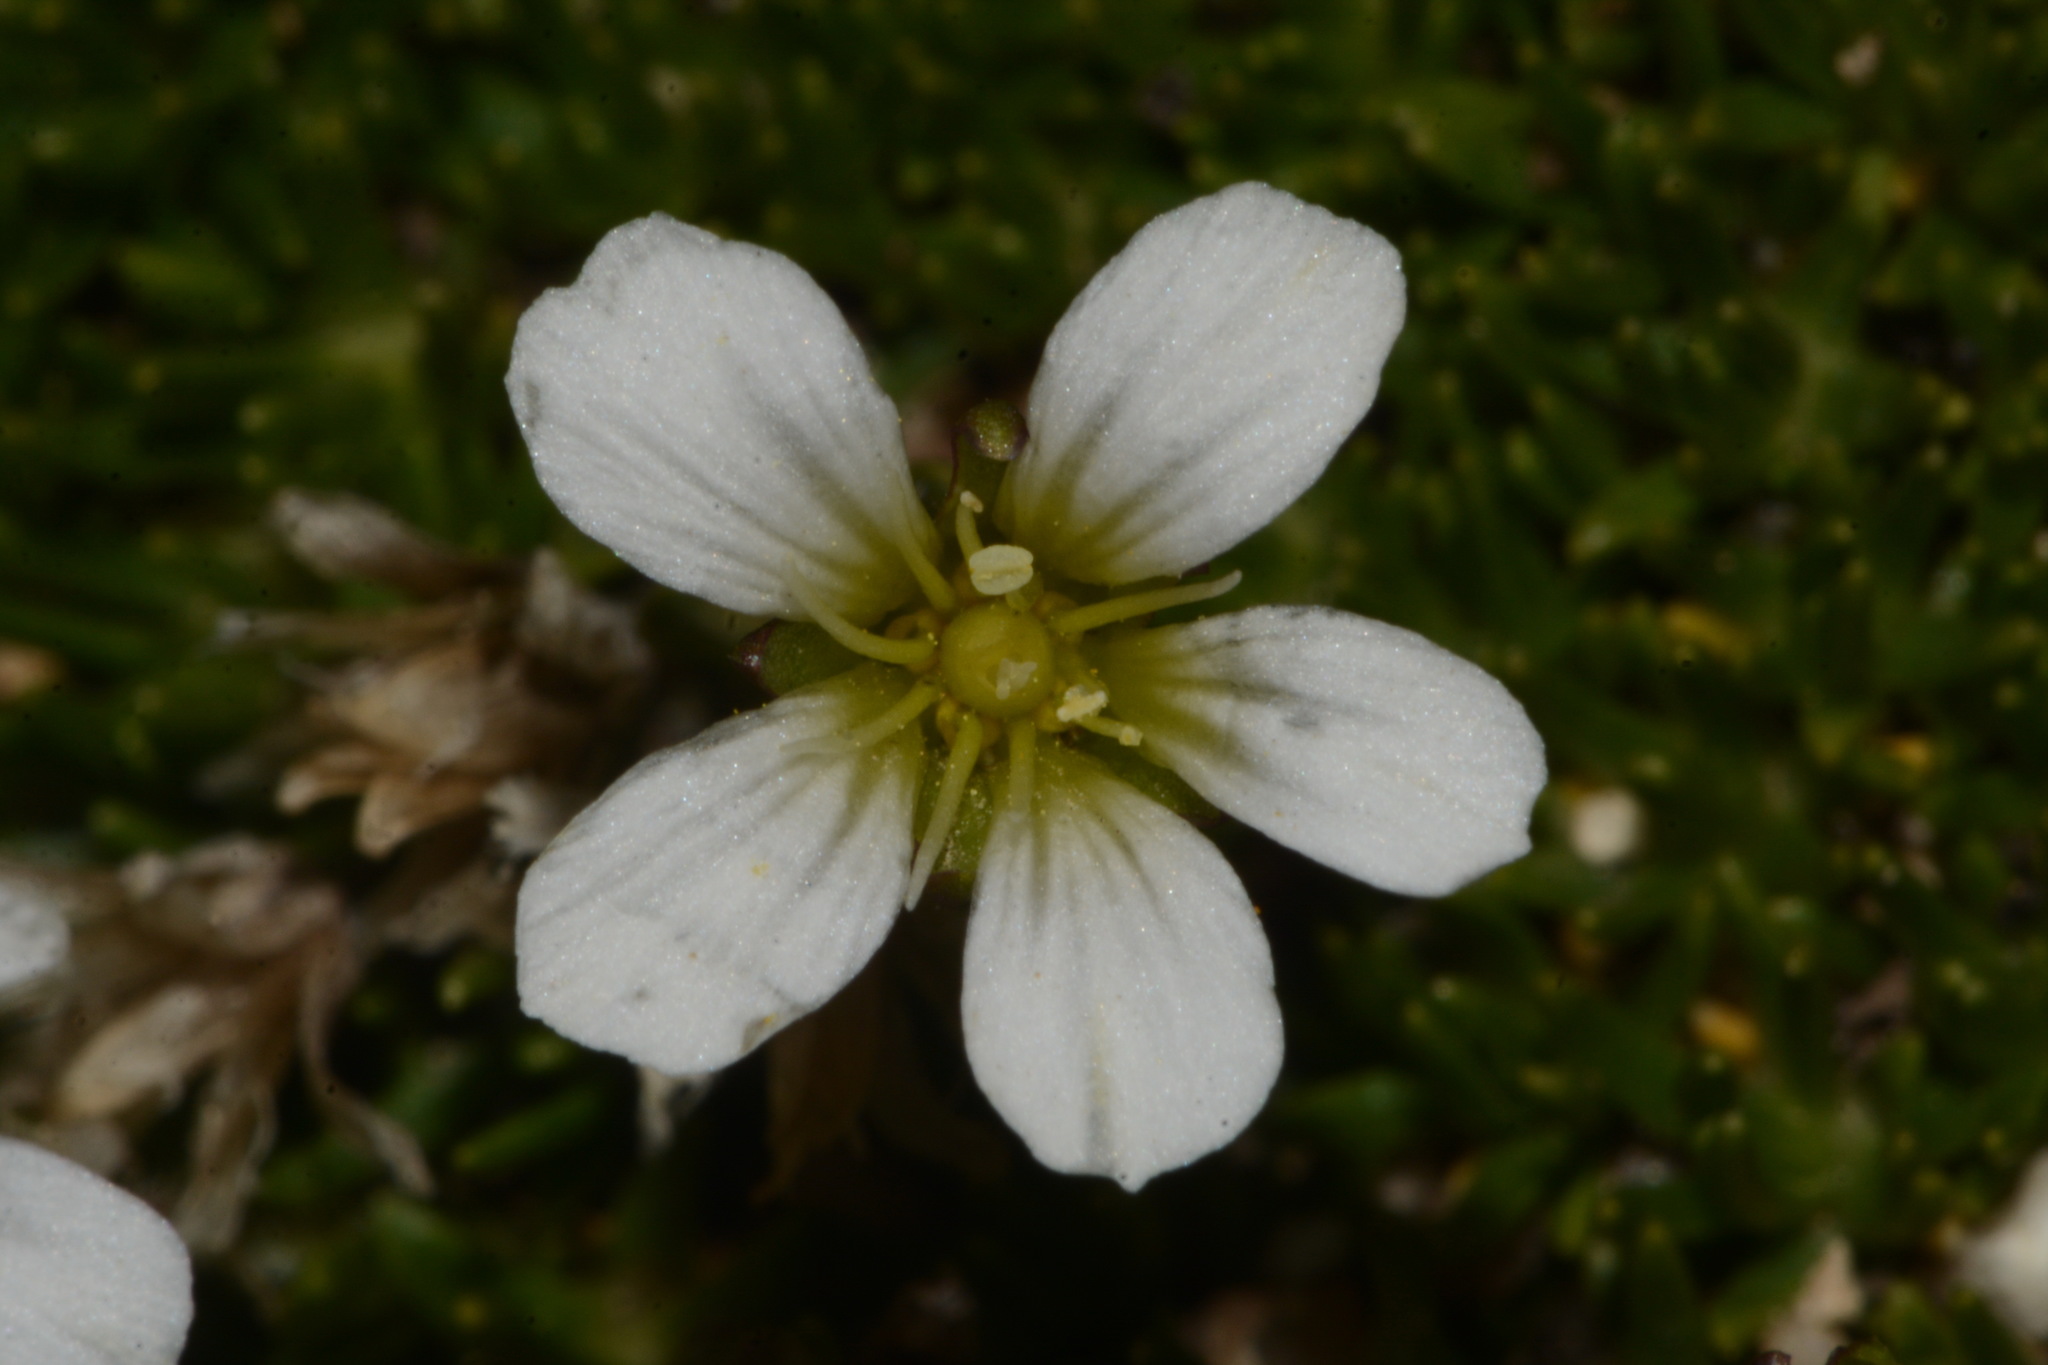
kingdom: Plantae
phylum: Tracheophyta
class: Magnoliopsida
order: Caryophyllales
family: Caryophyllaceae
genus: Cherleria
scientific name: Cherleria obtusiloba
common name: Alpine stitchwort
